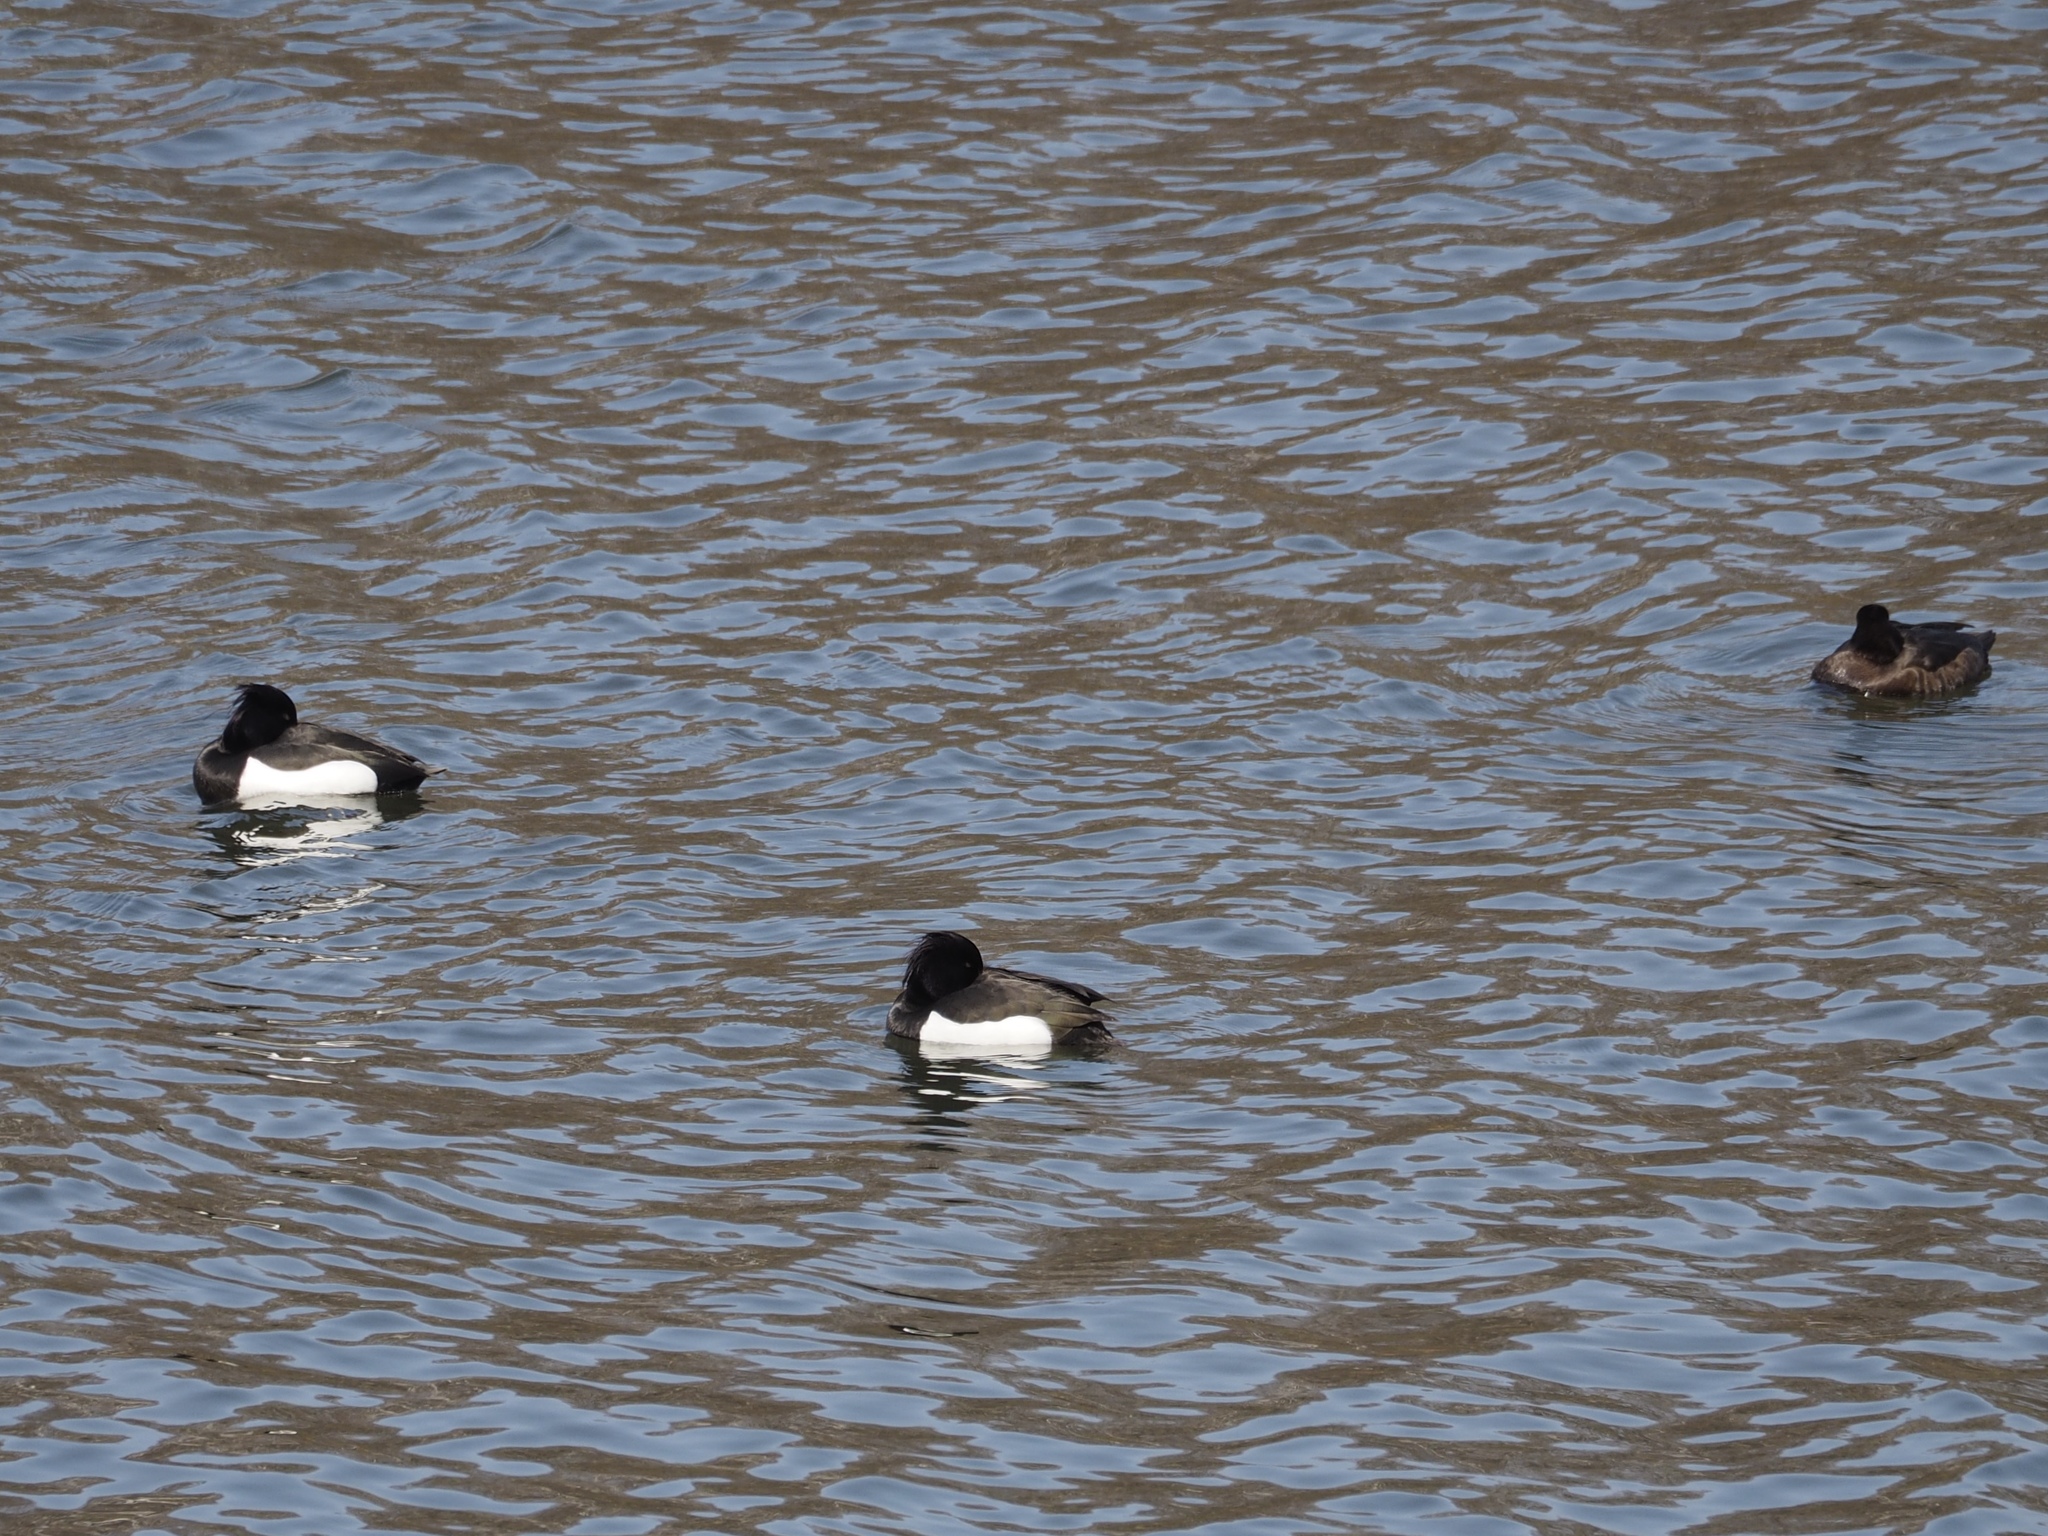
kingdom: Animalia
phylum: Chordata
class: Aves
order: Anseriformes
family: Anatidae
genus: Aythya
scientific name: Aythya fuligula
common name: Tufted duck
